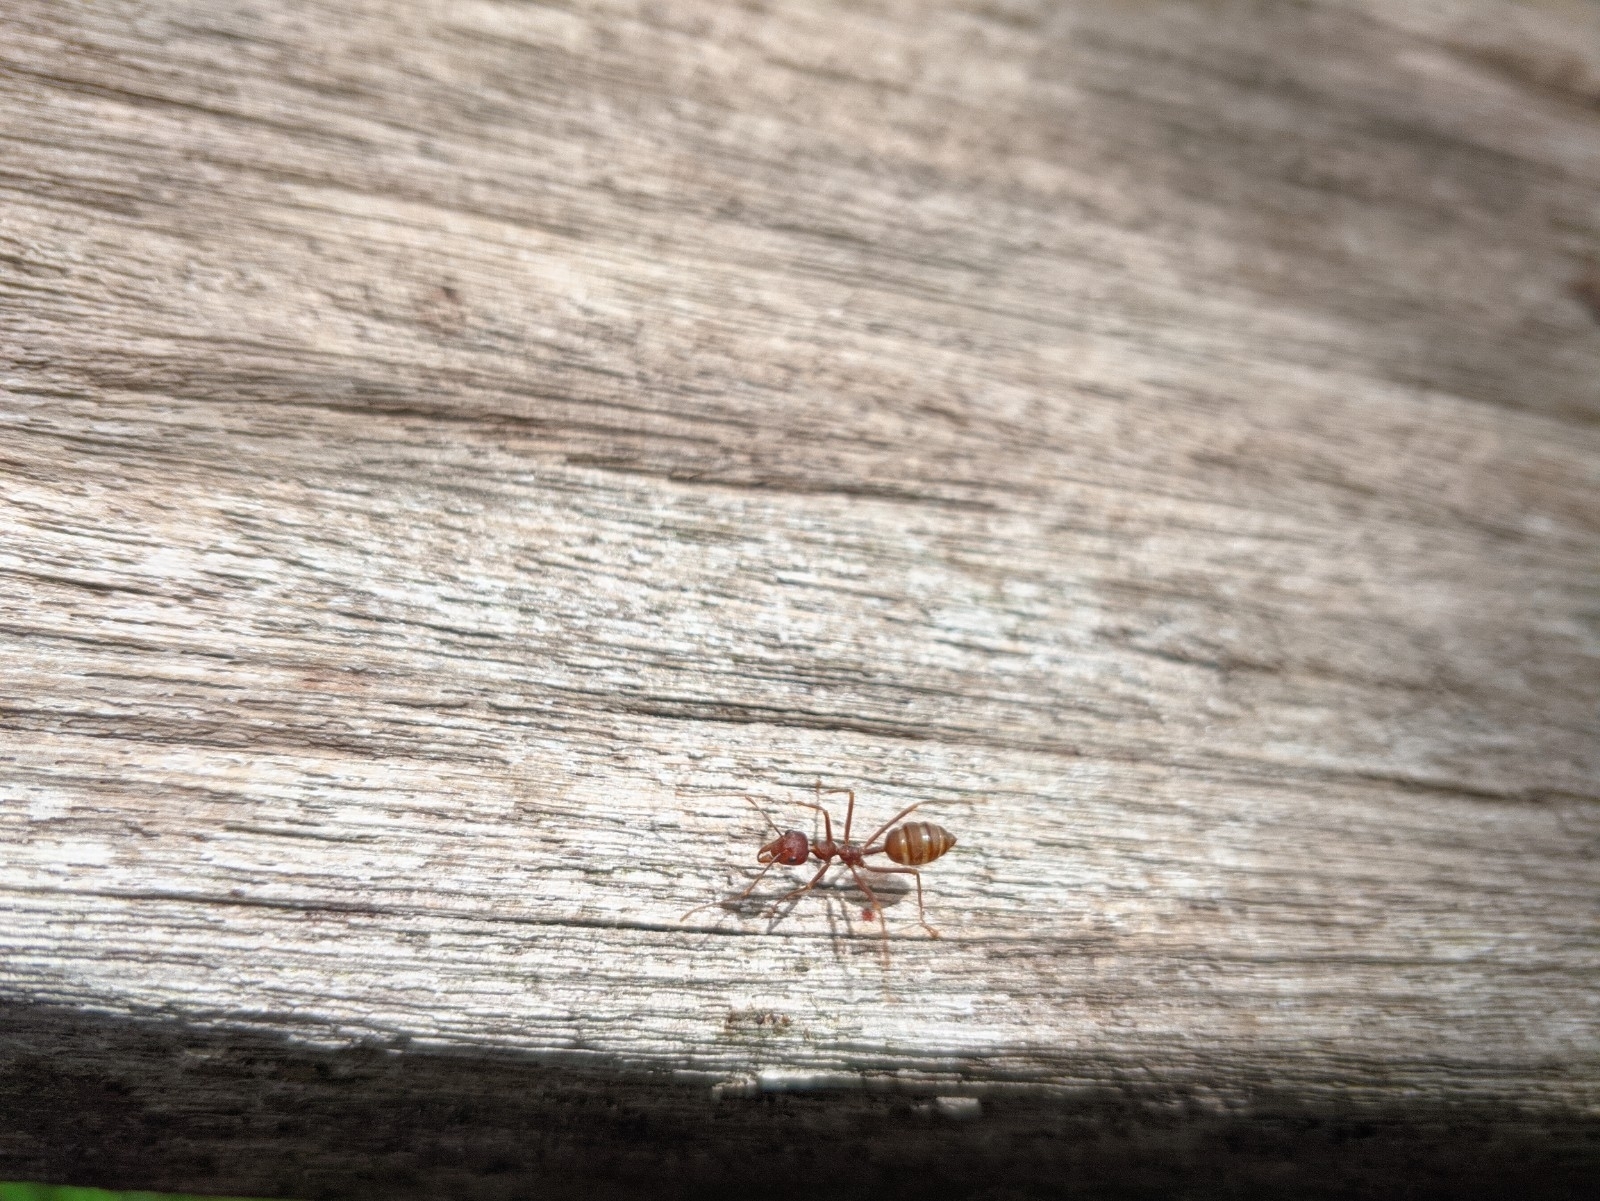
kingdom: Animalia
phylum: Arthropoda
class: Insecta
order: Hymenoptera
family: Formicidae
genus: Oecophylla
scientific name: Oecophylla smaragdina
